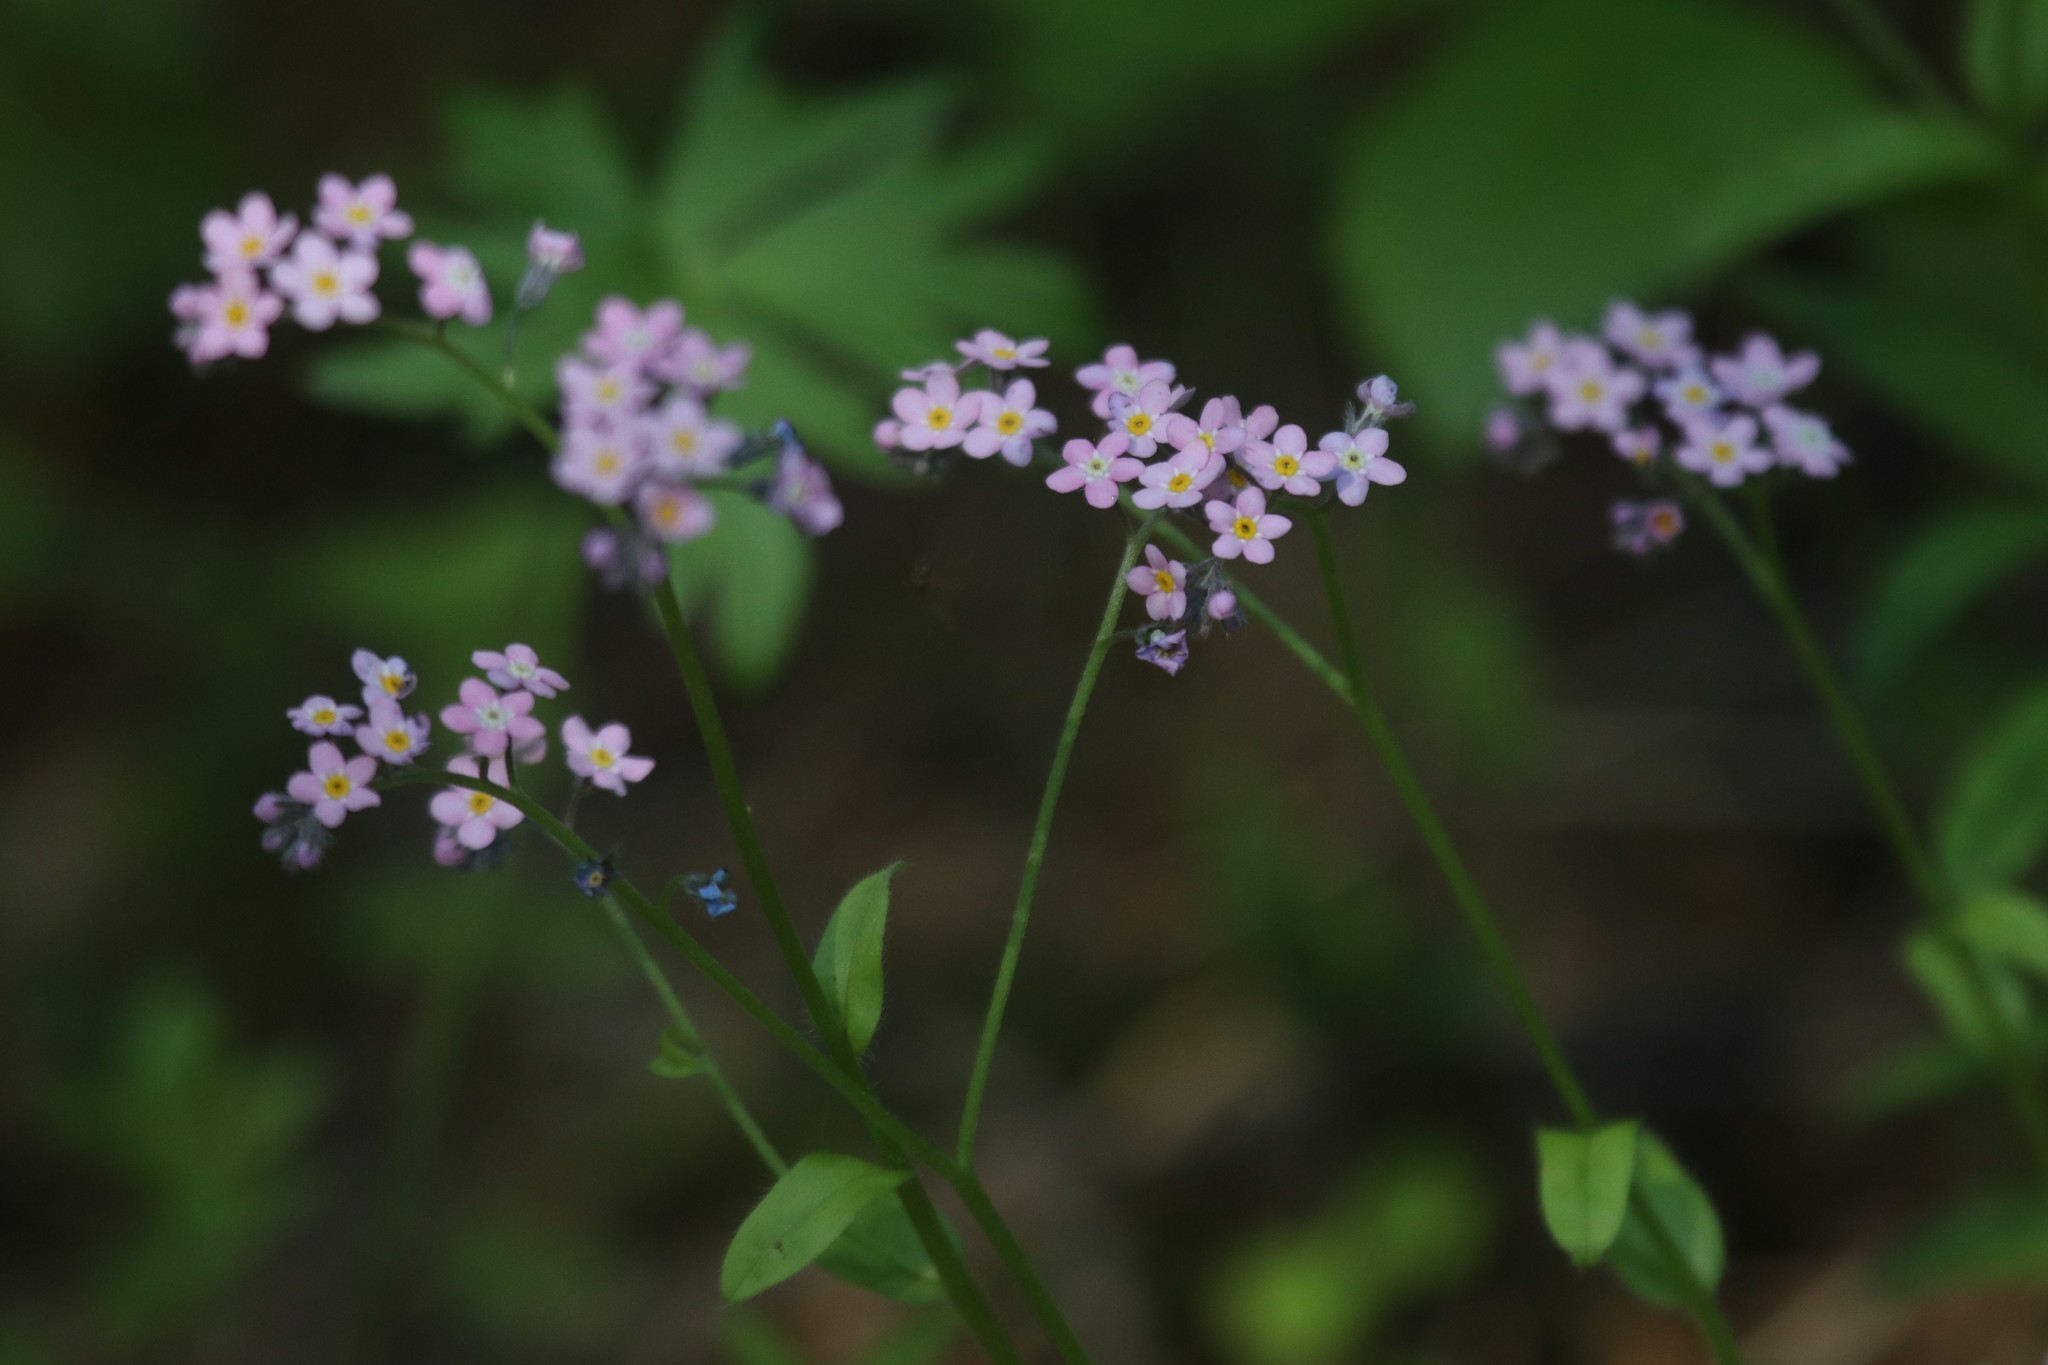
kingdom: Plantae
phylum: Tracheophyta
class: Magnoliopsida
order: Boraginales
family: Boraginaceae
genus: Myosotis
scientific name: Myosotis sylvatica
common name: Wood forget-me-not
